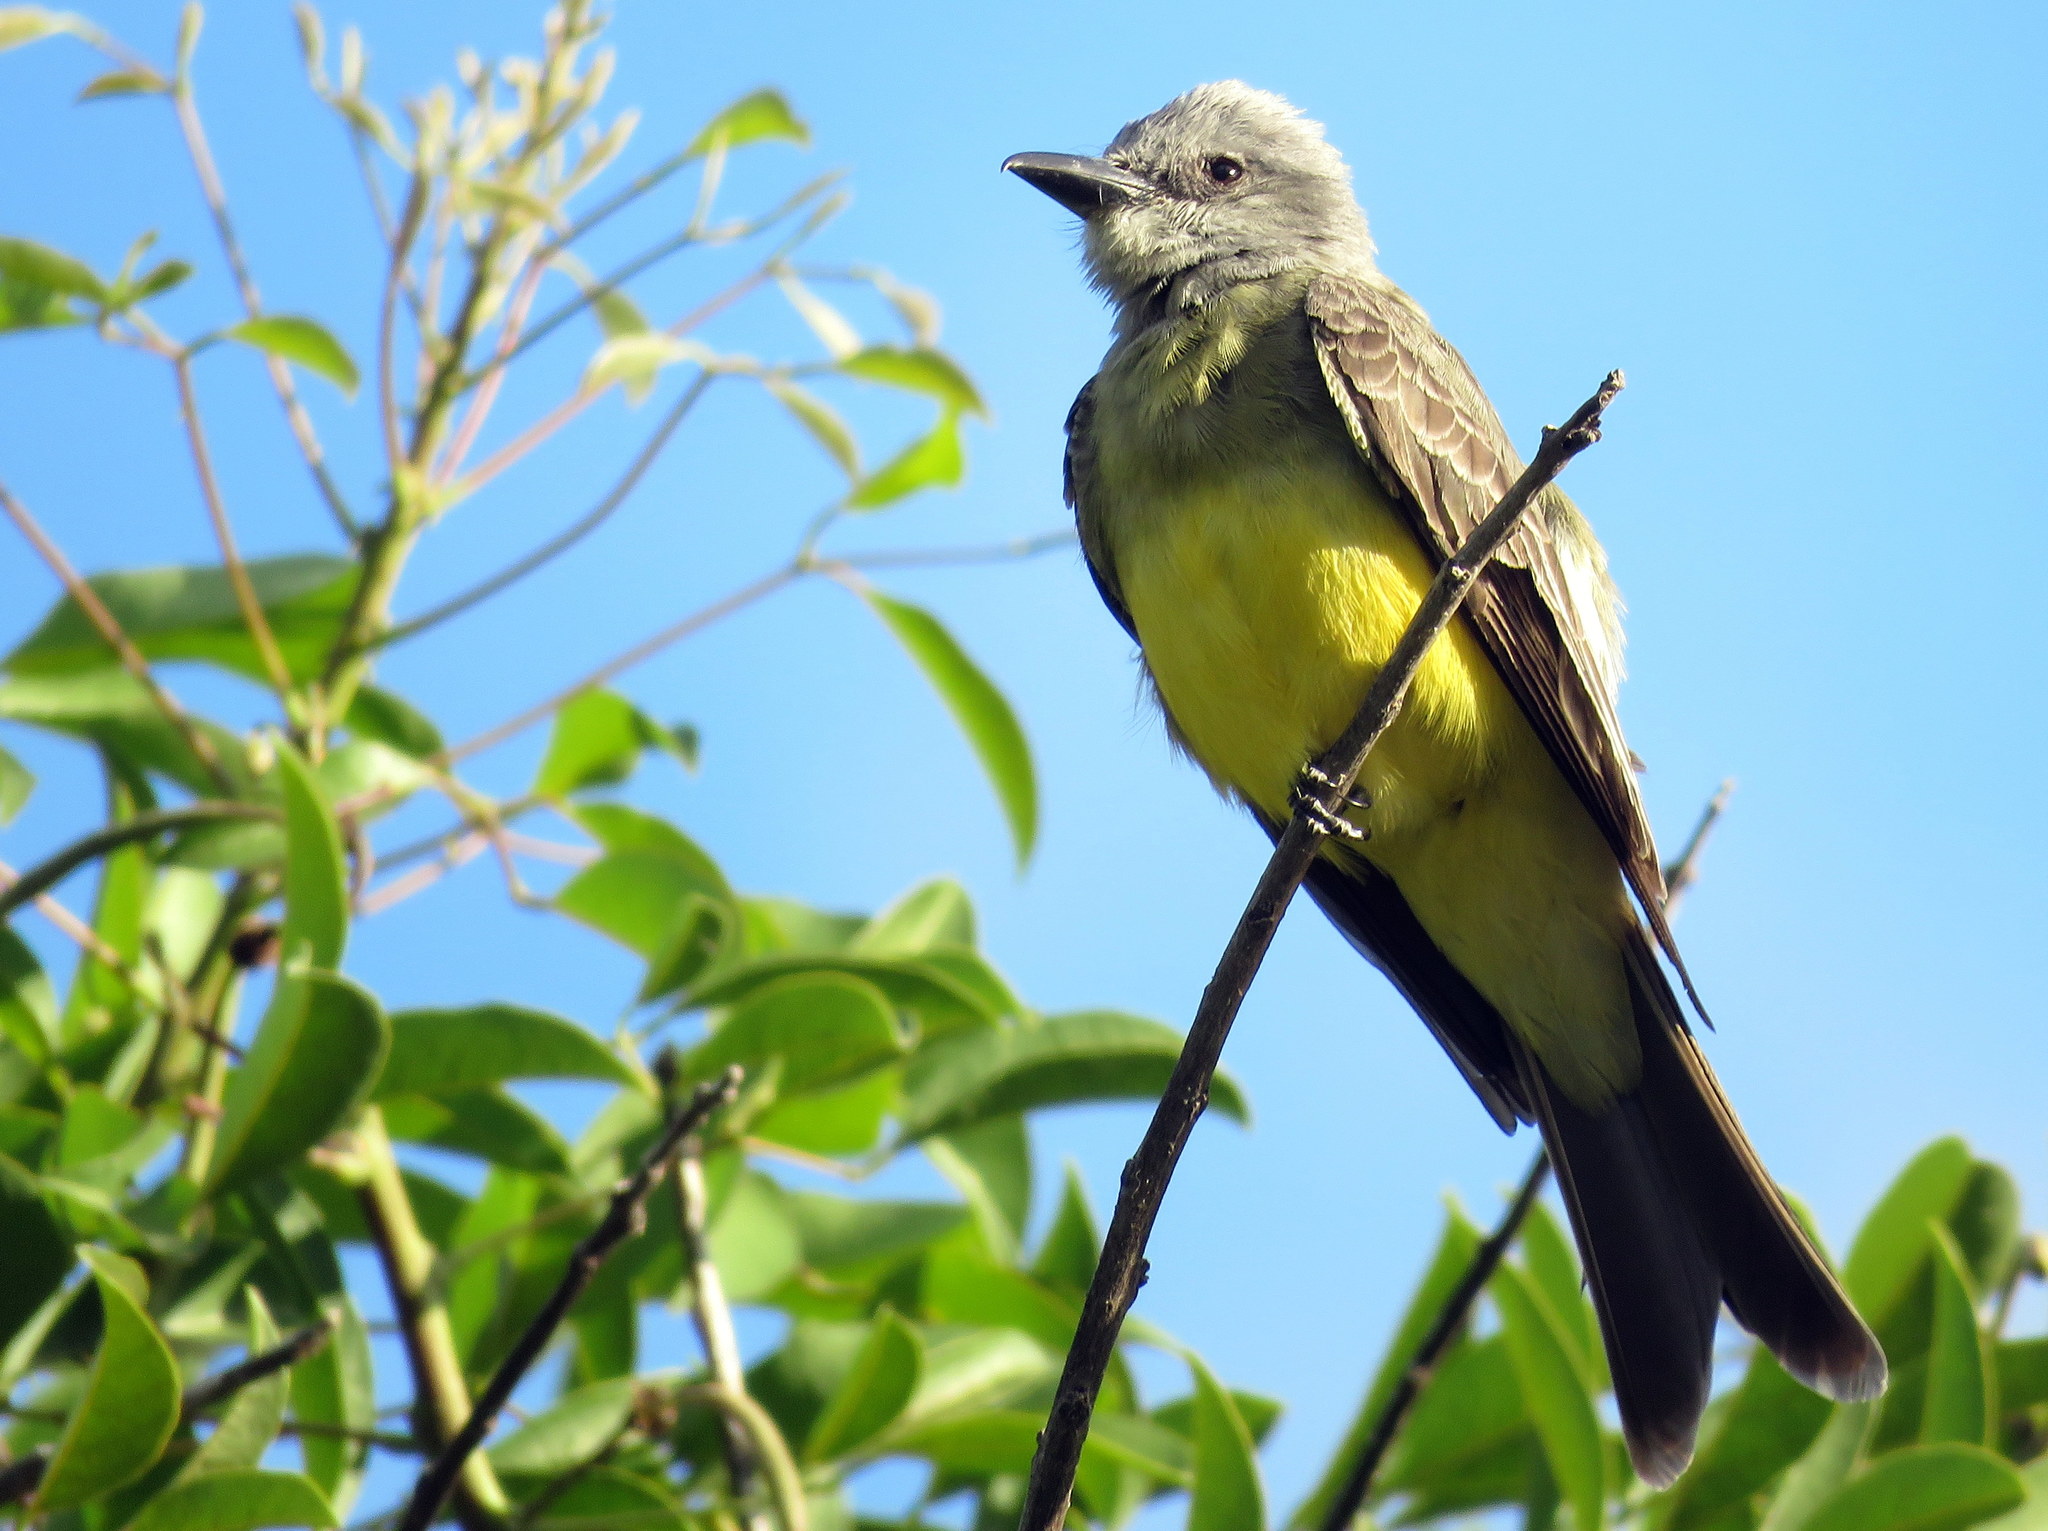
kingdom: Animalia
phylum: Chordata
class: Aves
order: Passeriformes
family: Tyrannidae
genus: Tyrannus
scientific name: Tyrannus melancholicus
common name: Tropical kingbird
